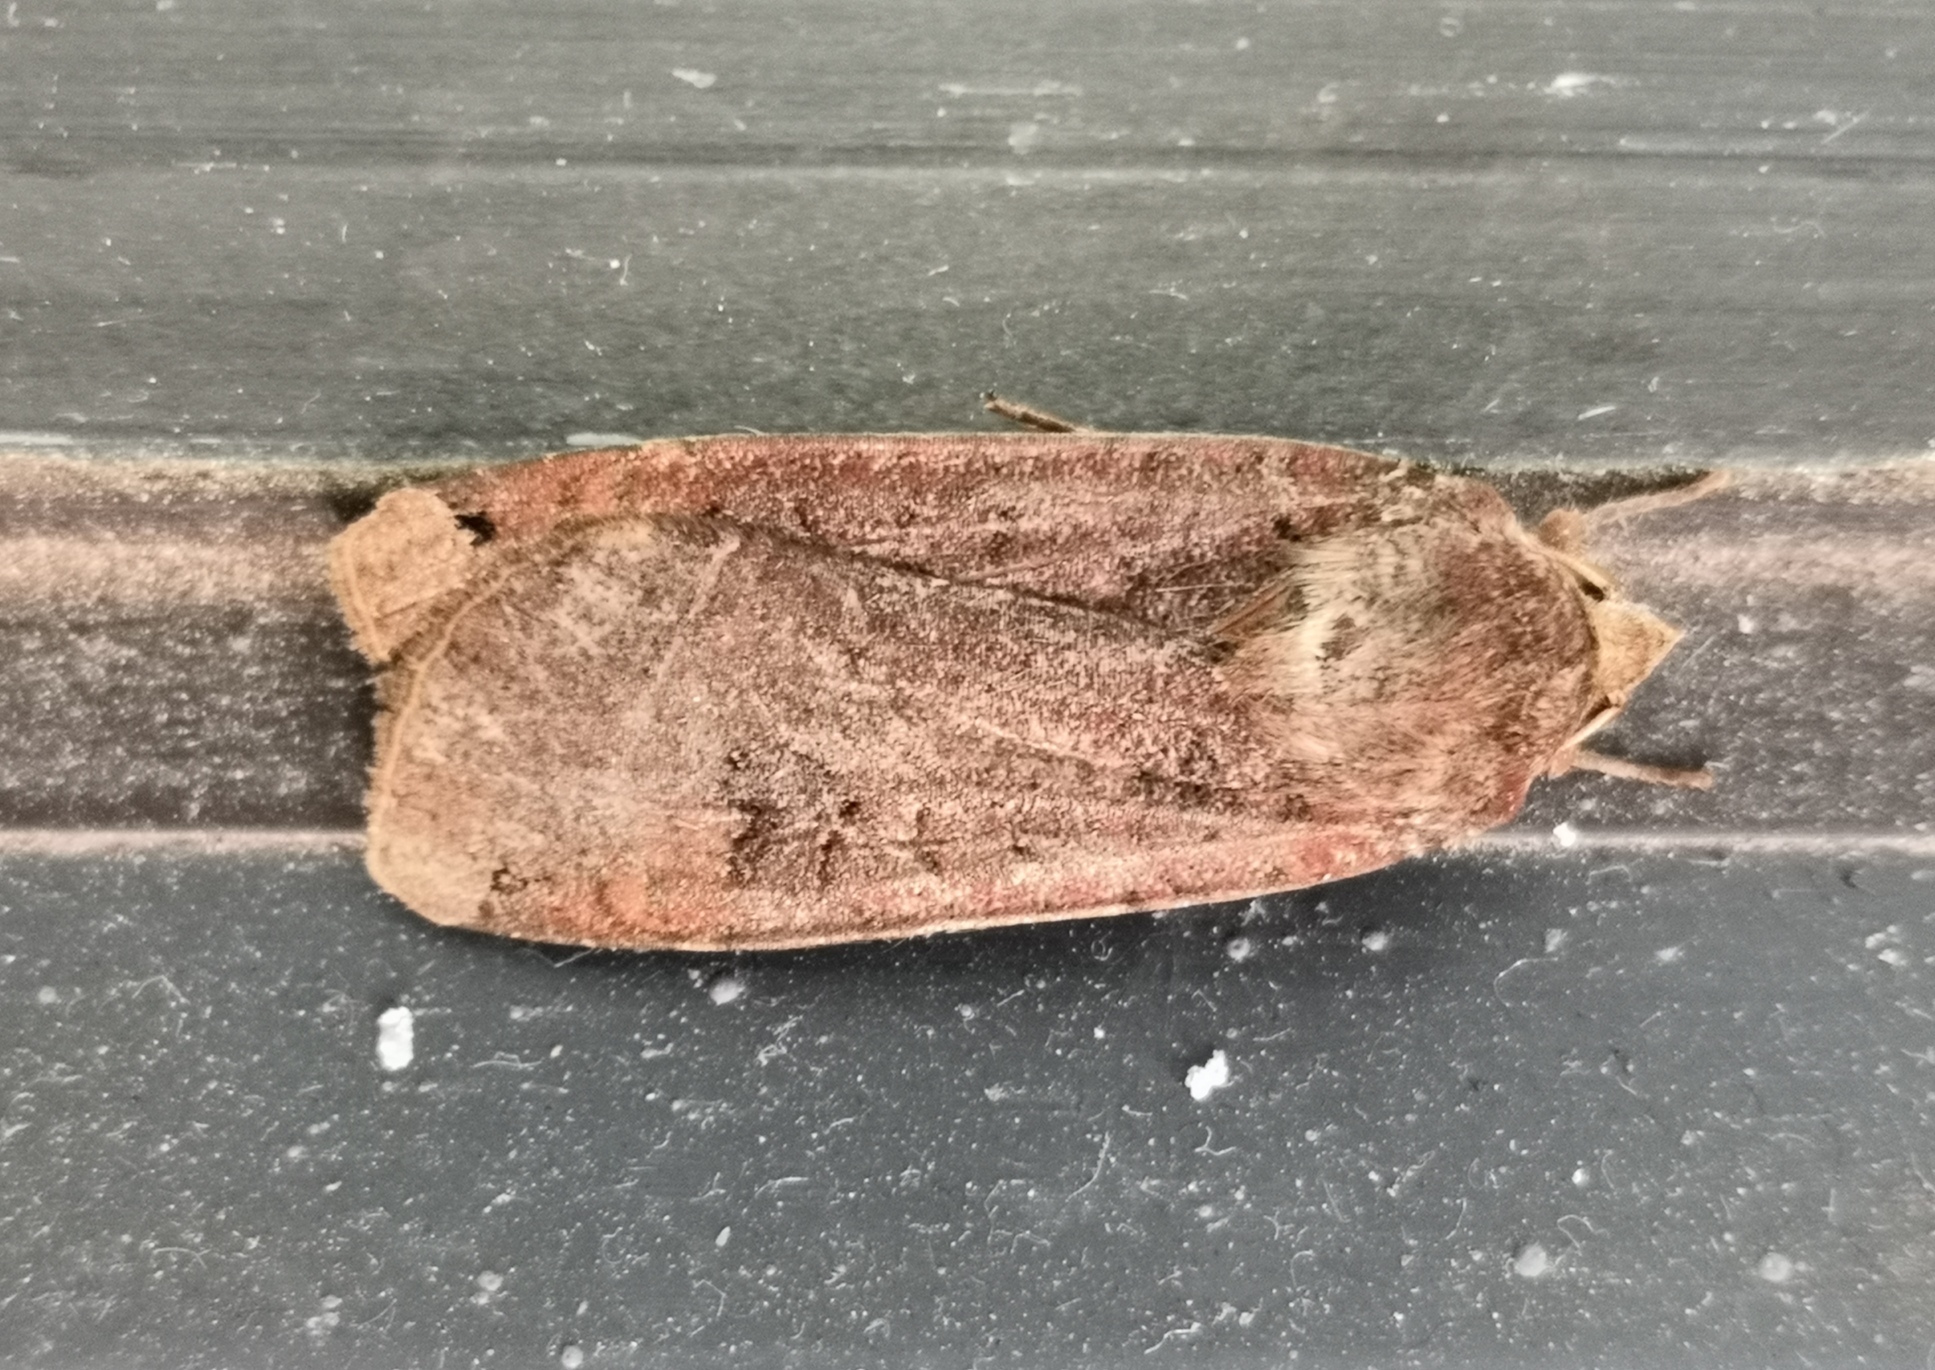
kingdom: Animalia
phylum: Arthropoda
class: Insecta
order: Lepidoptera
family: Noctuidae
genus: Noctua
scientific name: Noctua pronuba
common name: Large yellow underwing
